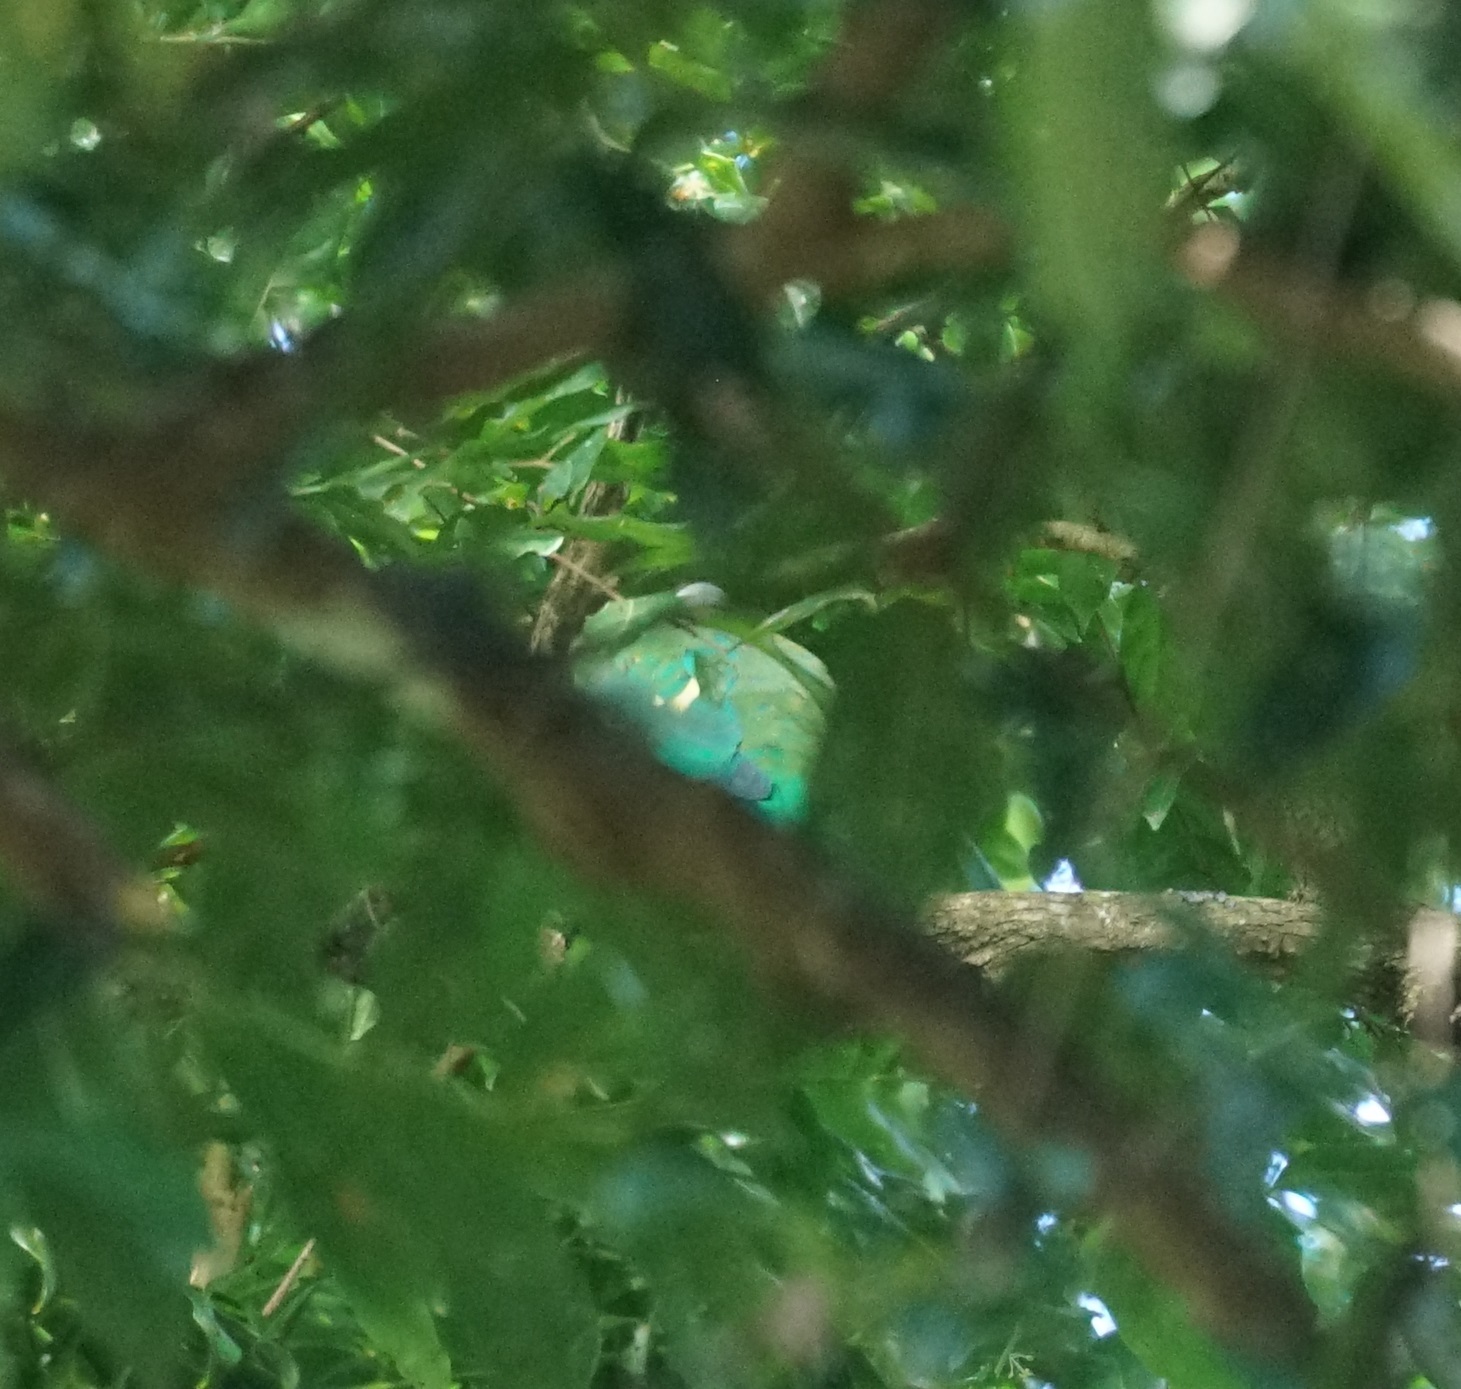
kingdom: Animalia
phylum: Chordata
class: Aves
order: Columbiformes
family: Columbidae
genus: Ptilinopus
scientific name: Ptilinopus magnificus
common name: Wompoo fruit dove
